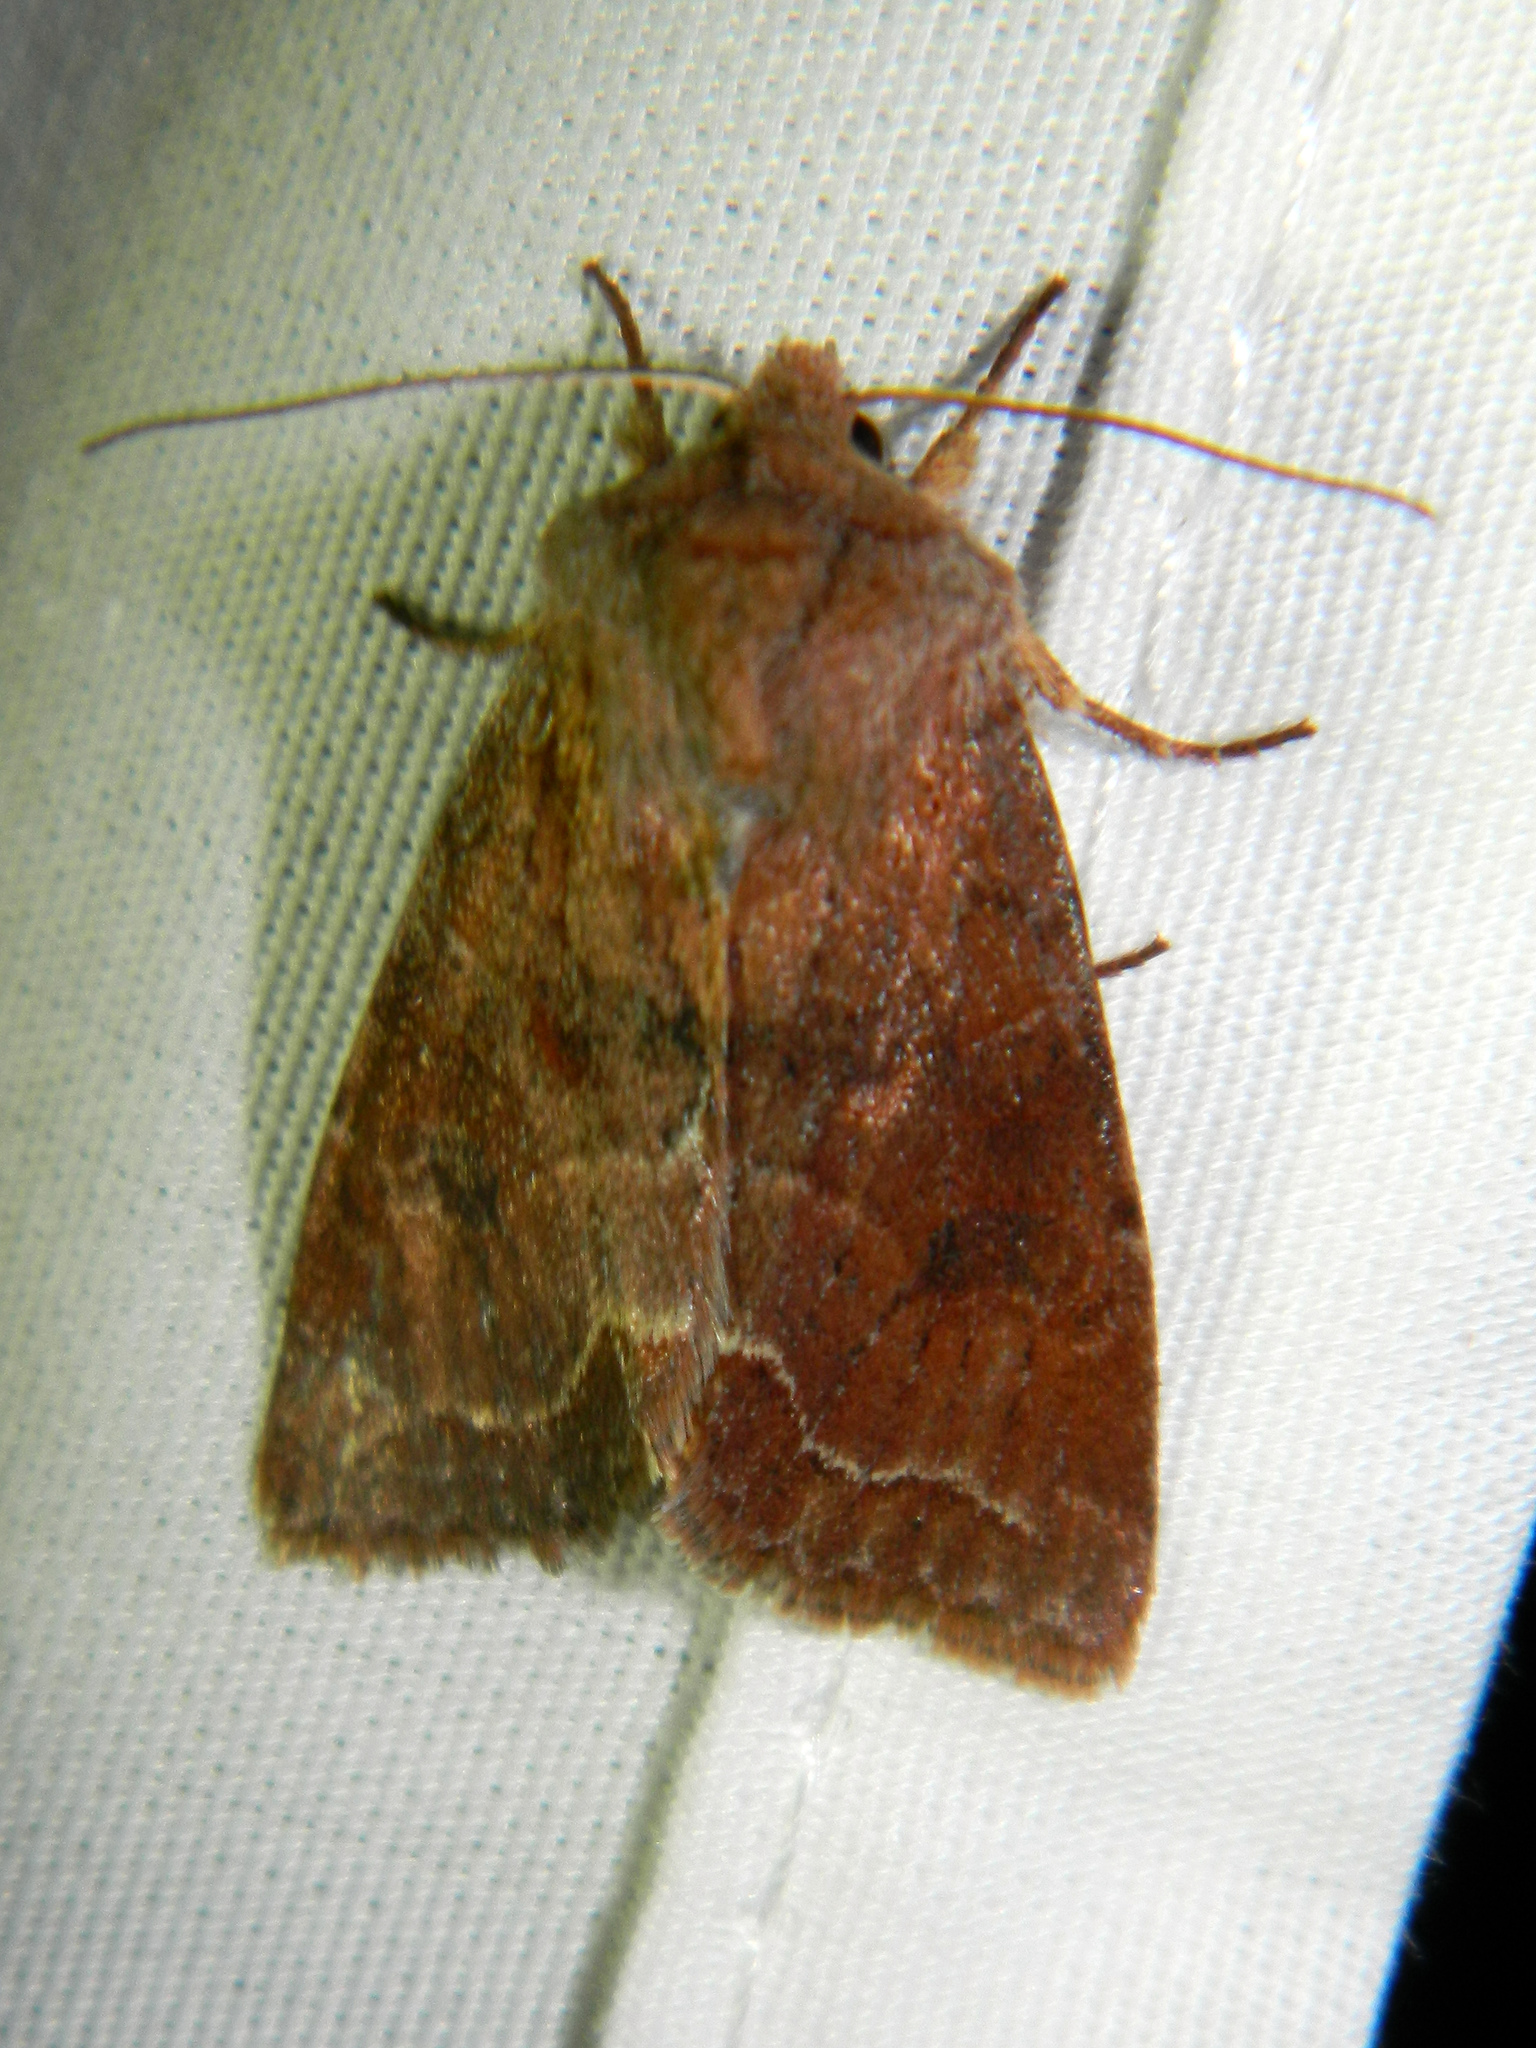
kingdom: Animalia
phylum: Arthropoda
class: Insecta
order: Lepidoptera
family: Noctuidae
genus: Orthosia
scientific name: Orthosia revicta
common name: Rusty whitesided caterpillar
